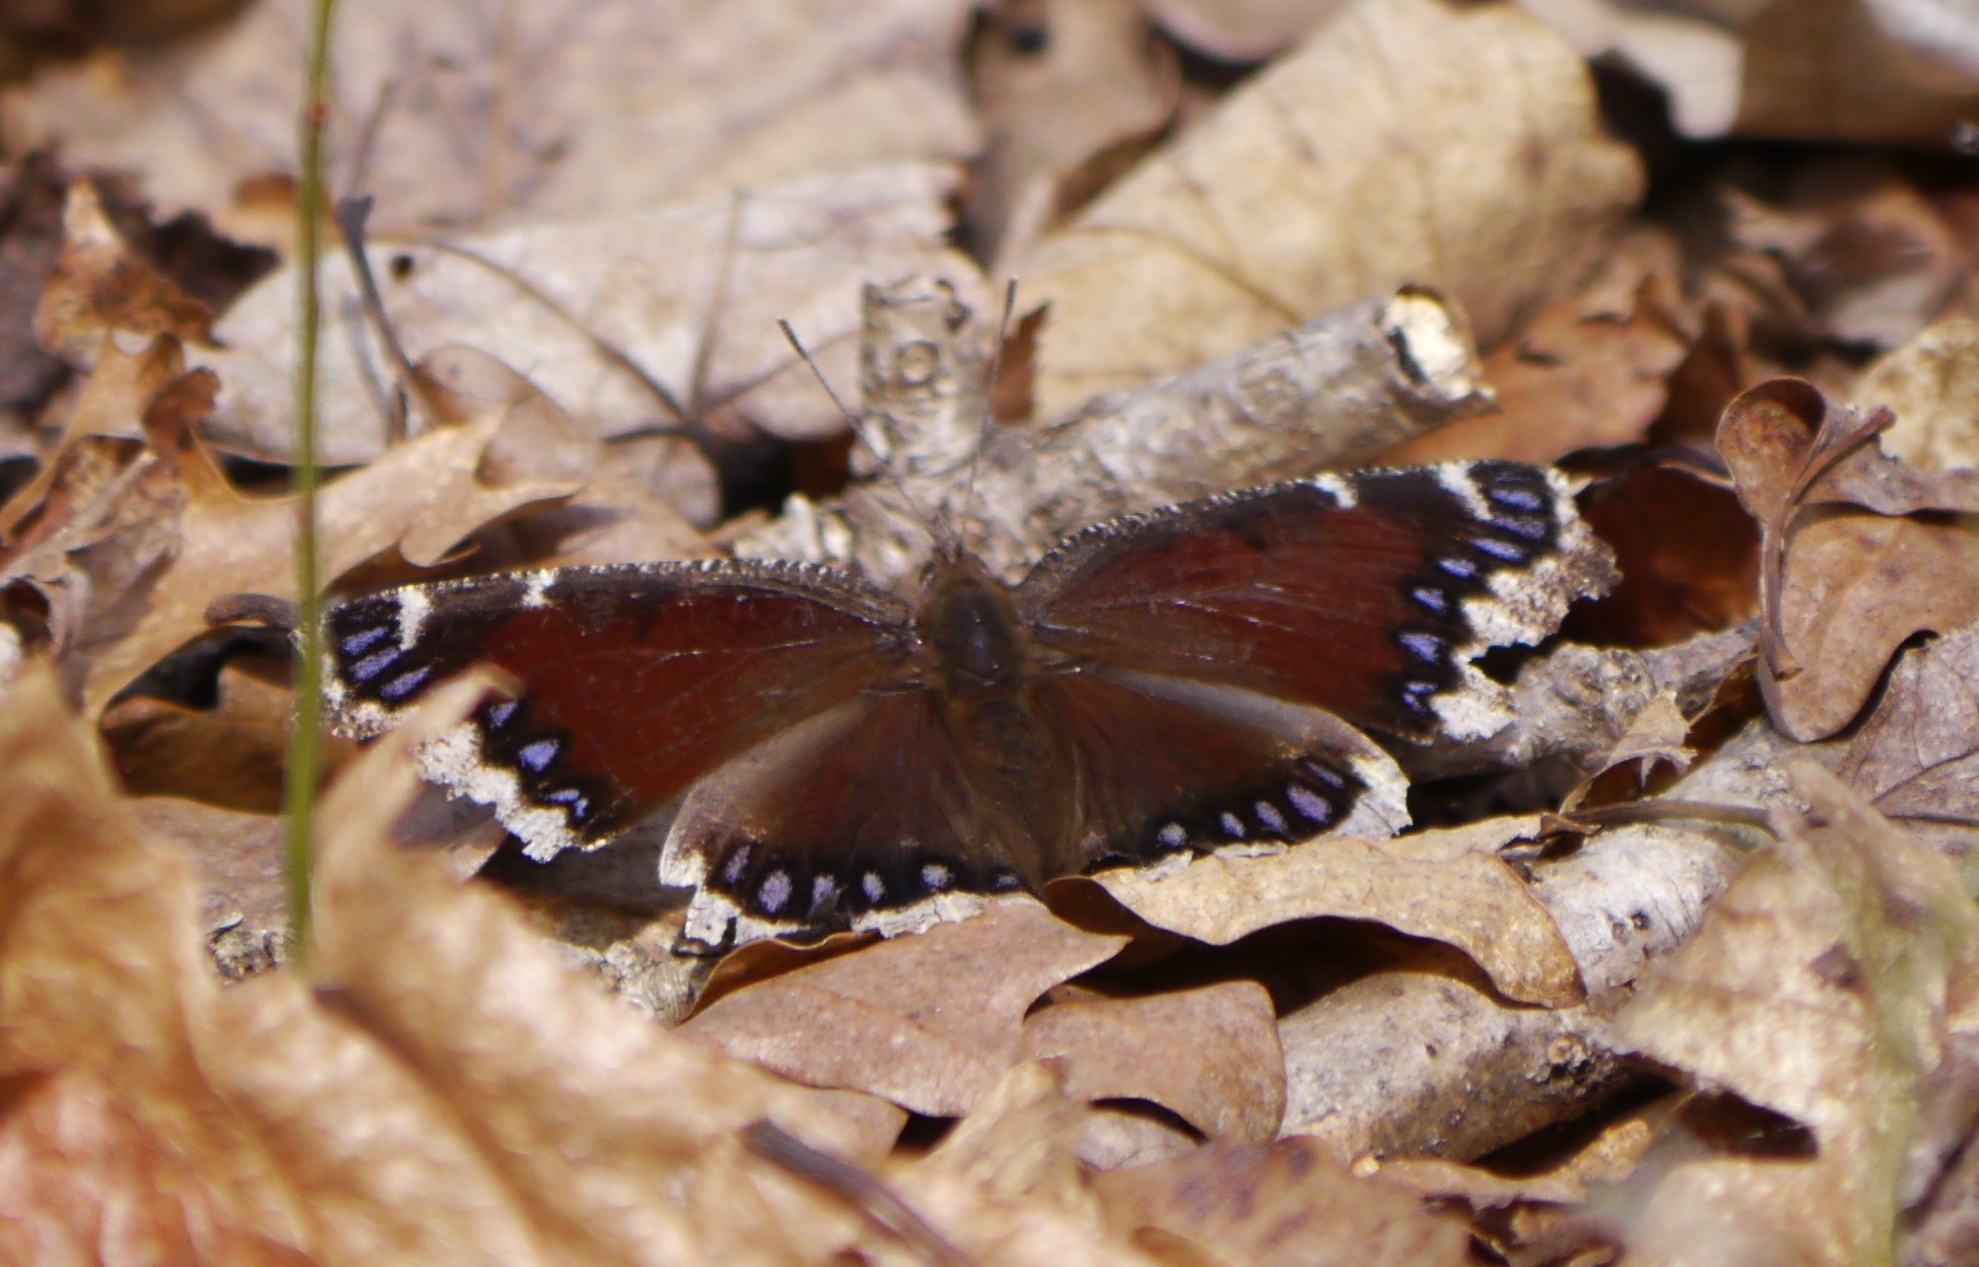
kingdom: Animalia
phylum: Arthropoda
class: Insecta
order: Lepidoptera
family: Nymphalidae
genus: Nymphalis
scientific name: Nymphalis antiopa
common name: Camberwell beauty
